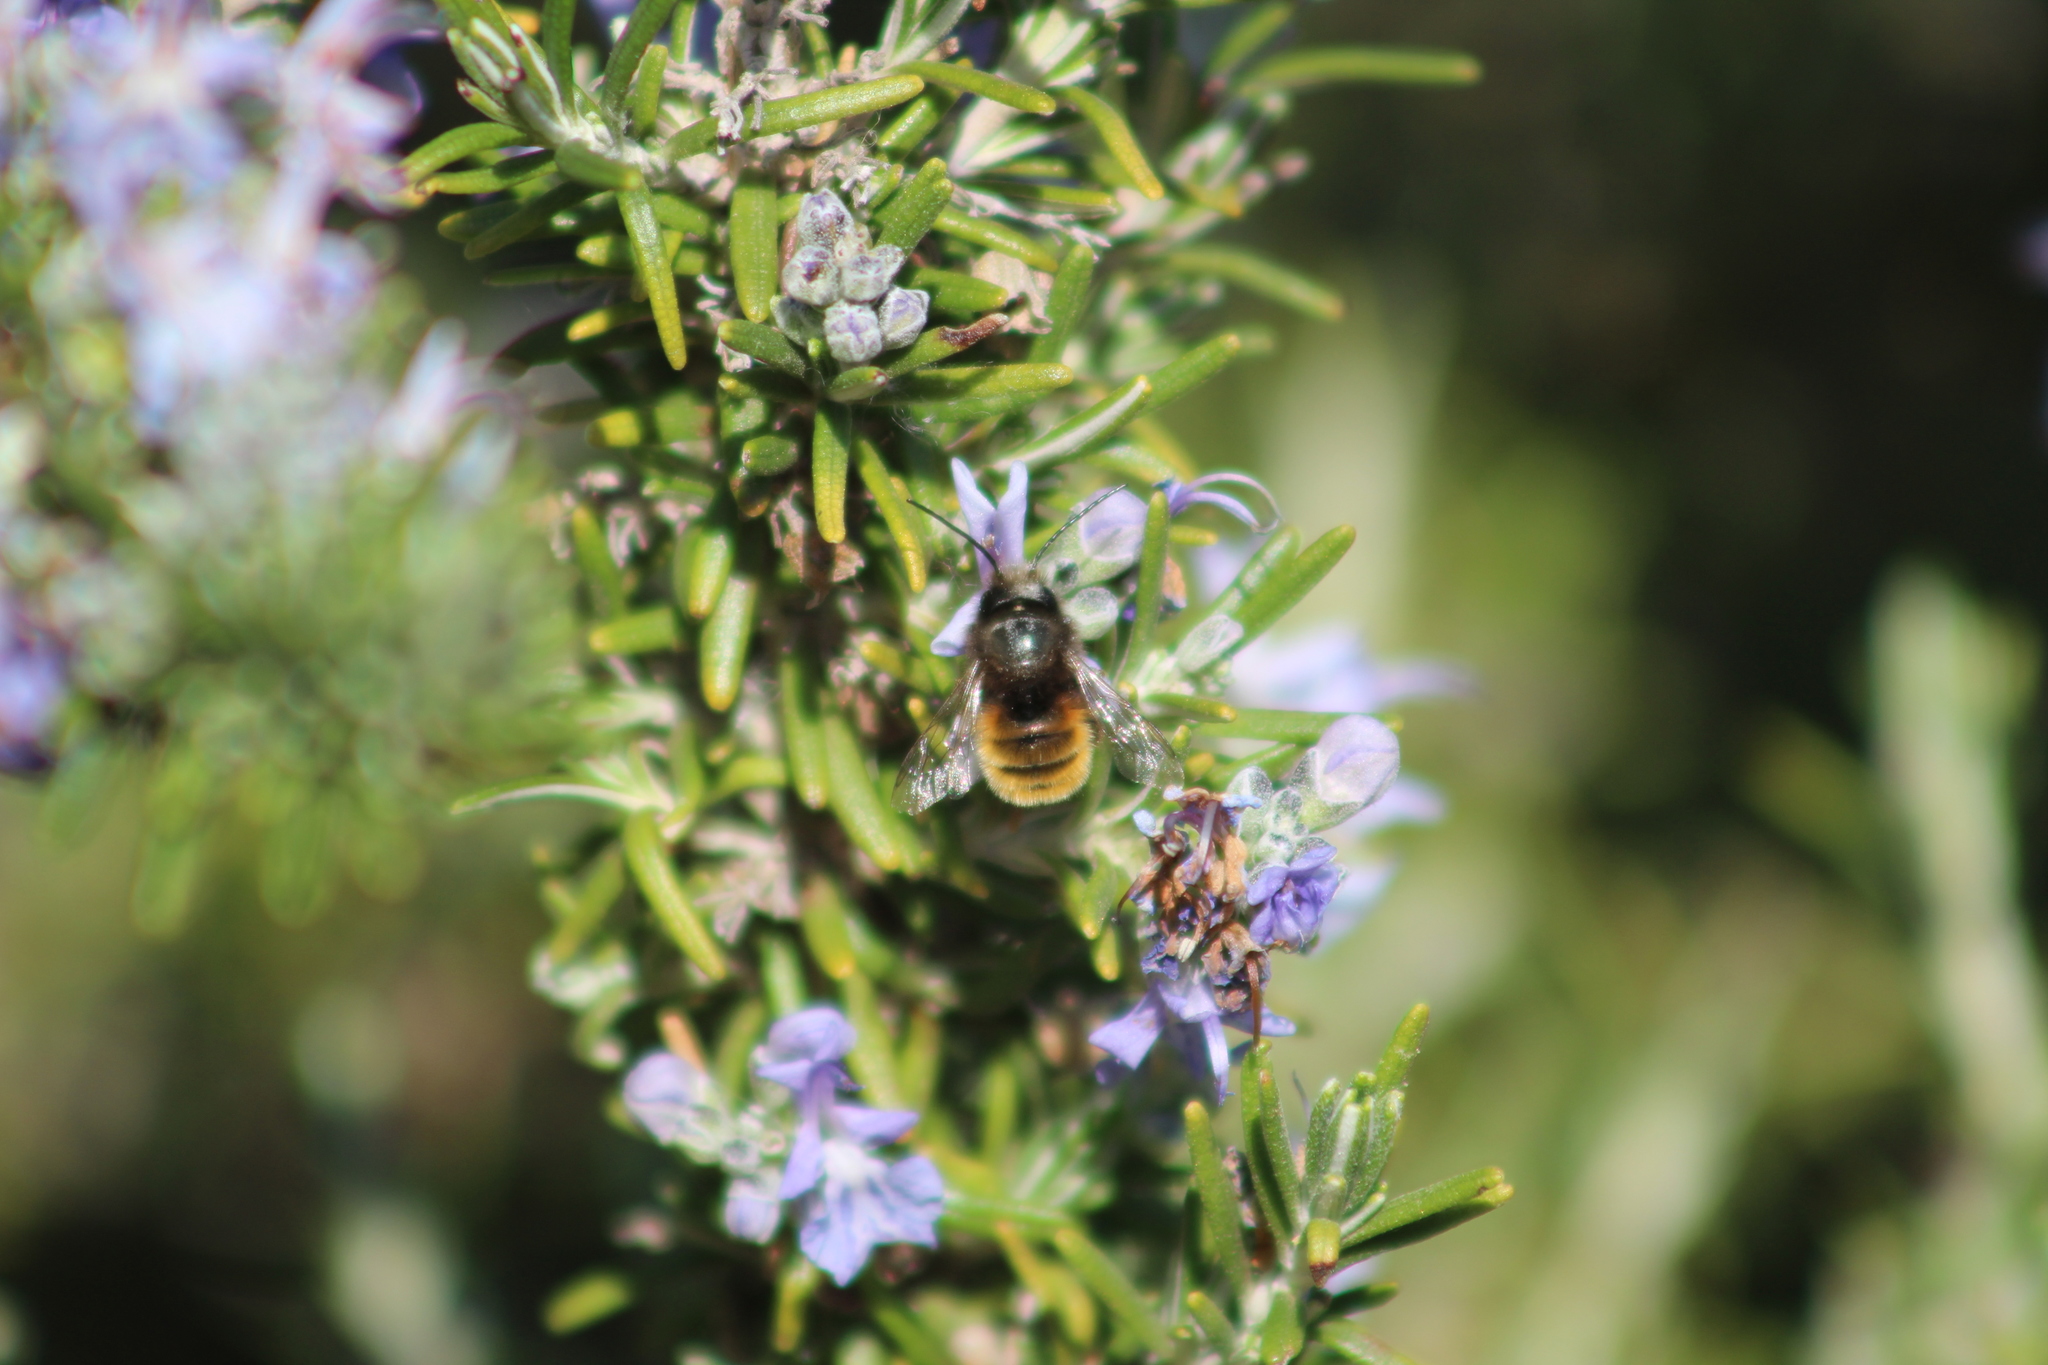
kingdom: Animalia
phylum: Arthropoda
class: Insecta
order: Hymenoptera
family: Megachilidae
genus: Osmia
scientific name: Osmia cornuta
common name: Mason bee
